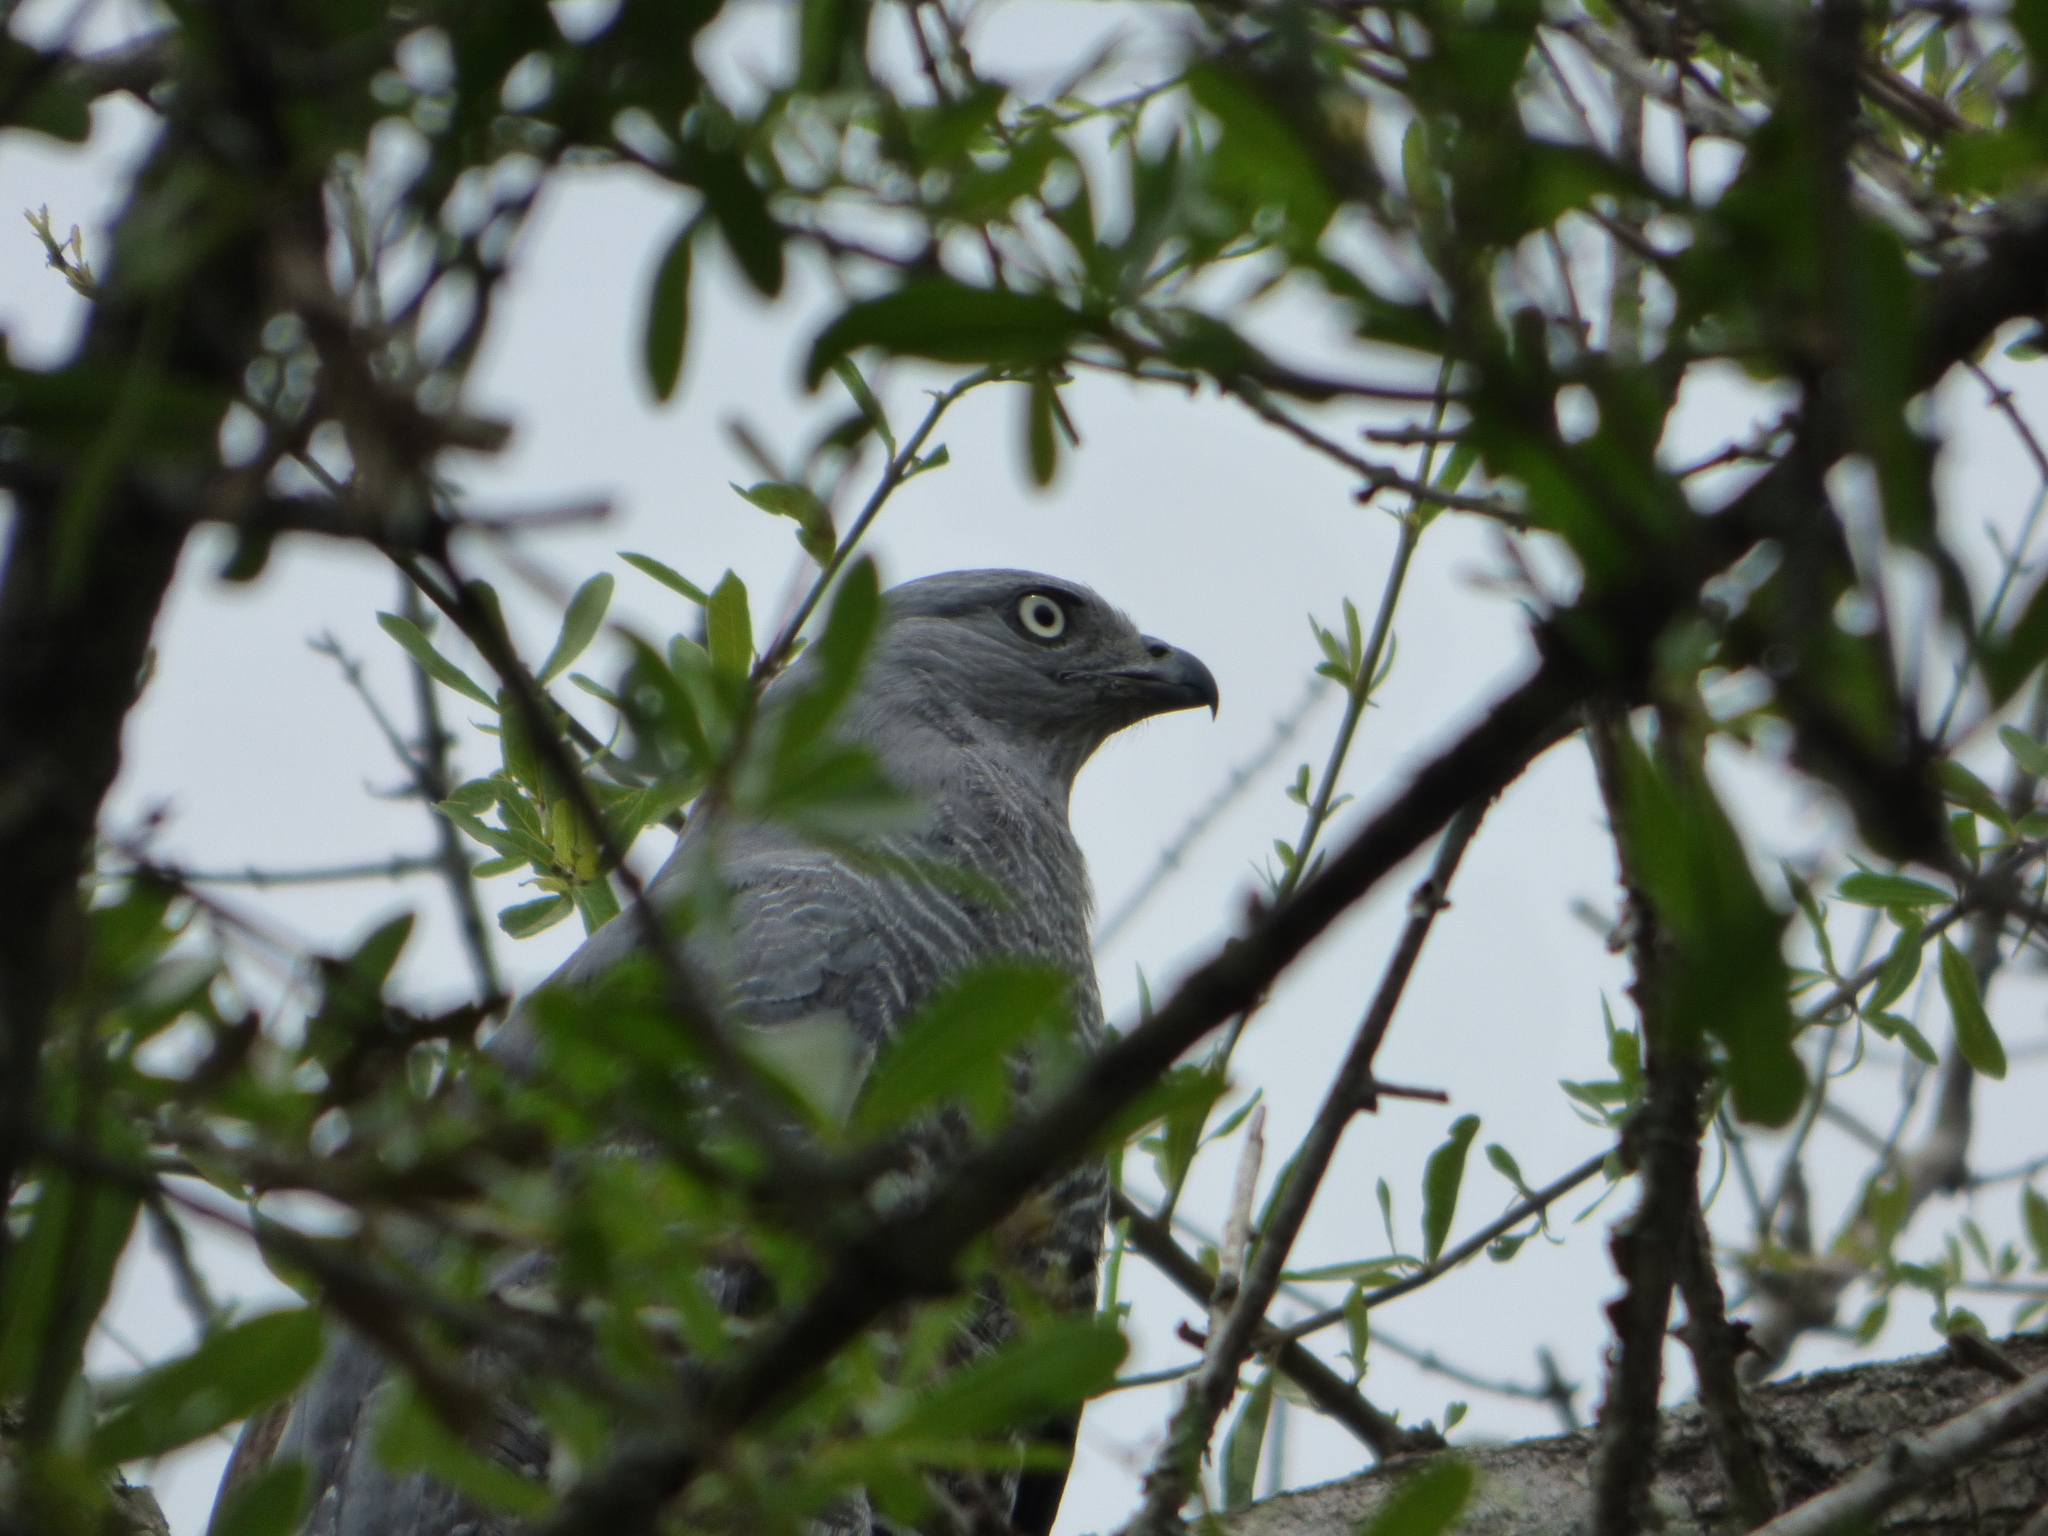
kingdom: Animalia
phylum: Chordata
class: Aves
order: Accipitriformes
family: Accipitridae
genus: Geranospiza
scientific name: Geranospiza caerulescens
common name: Crane hawk
